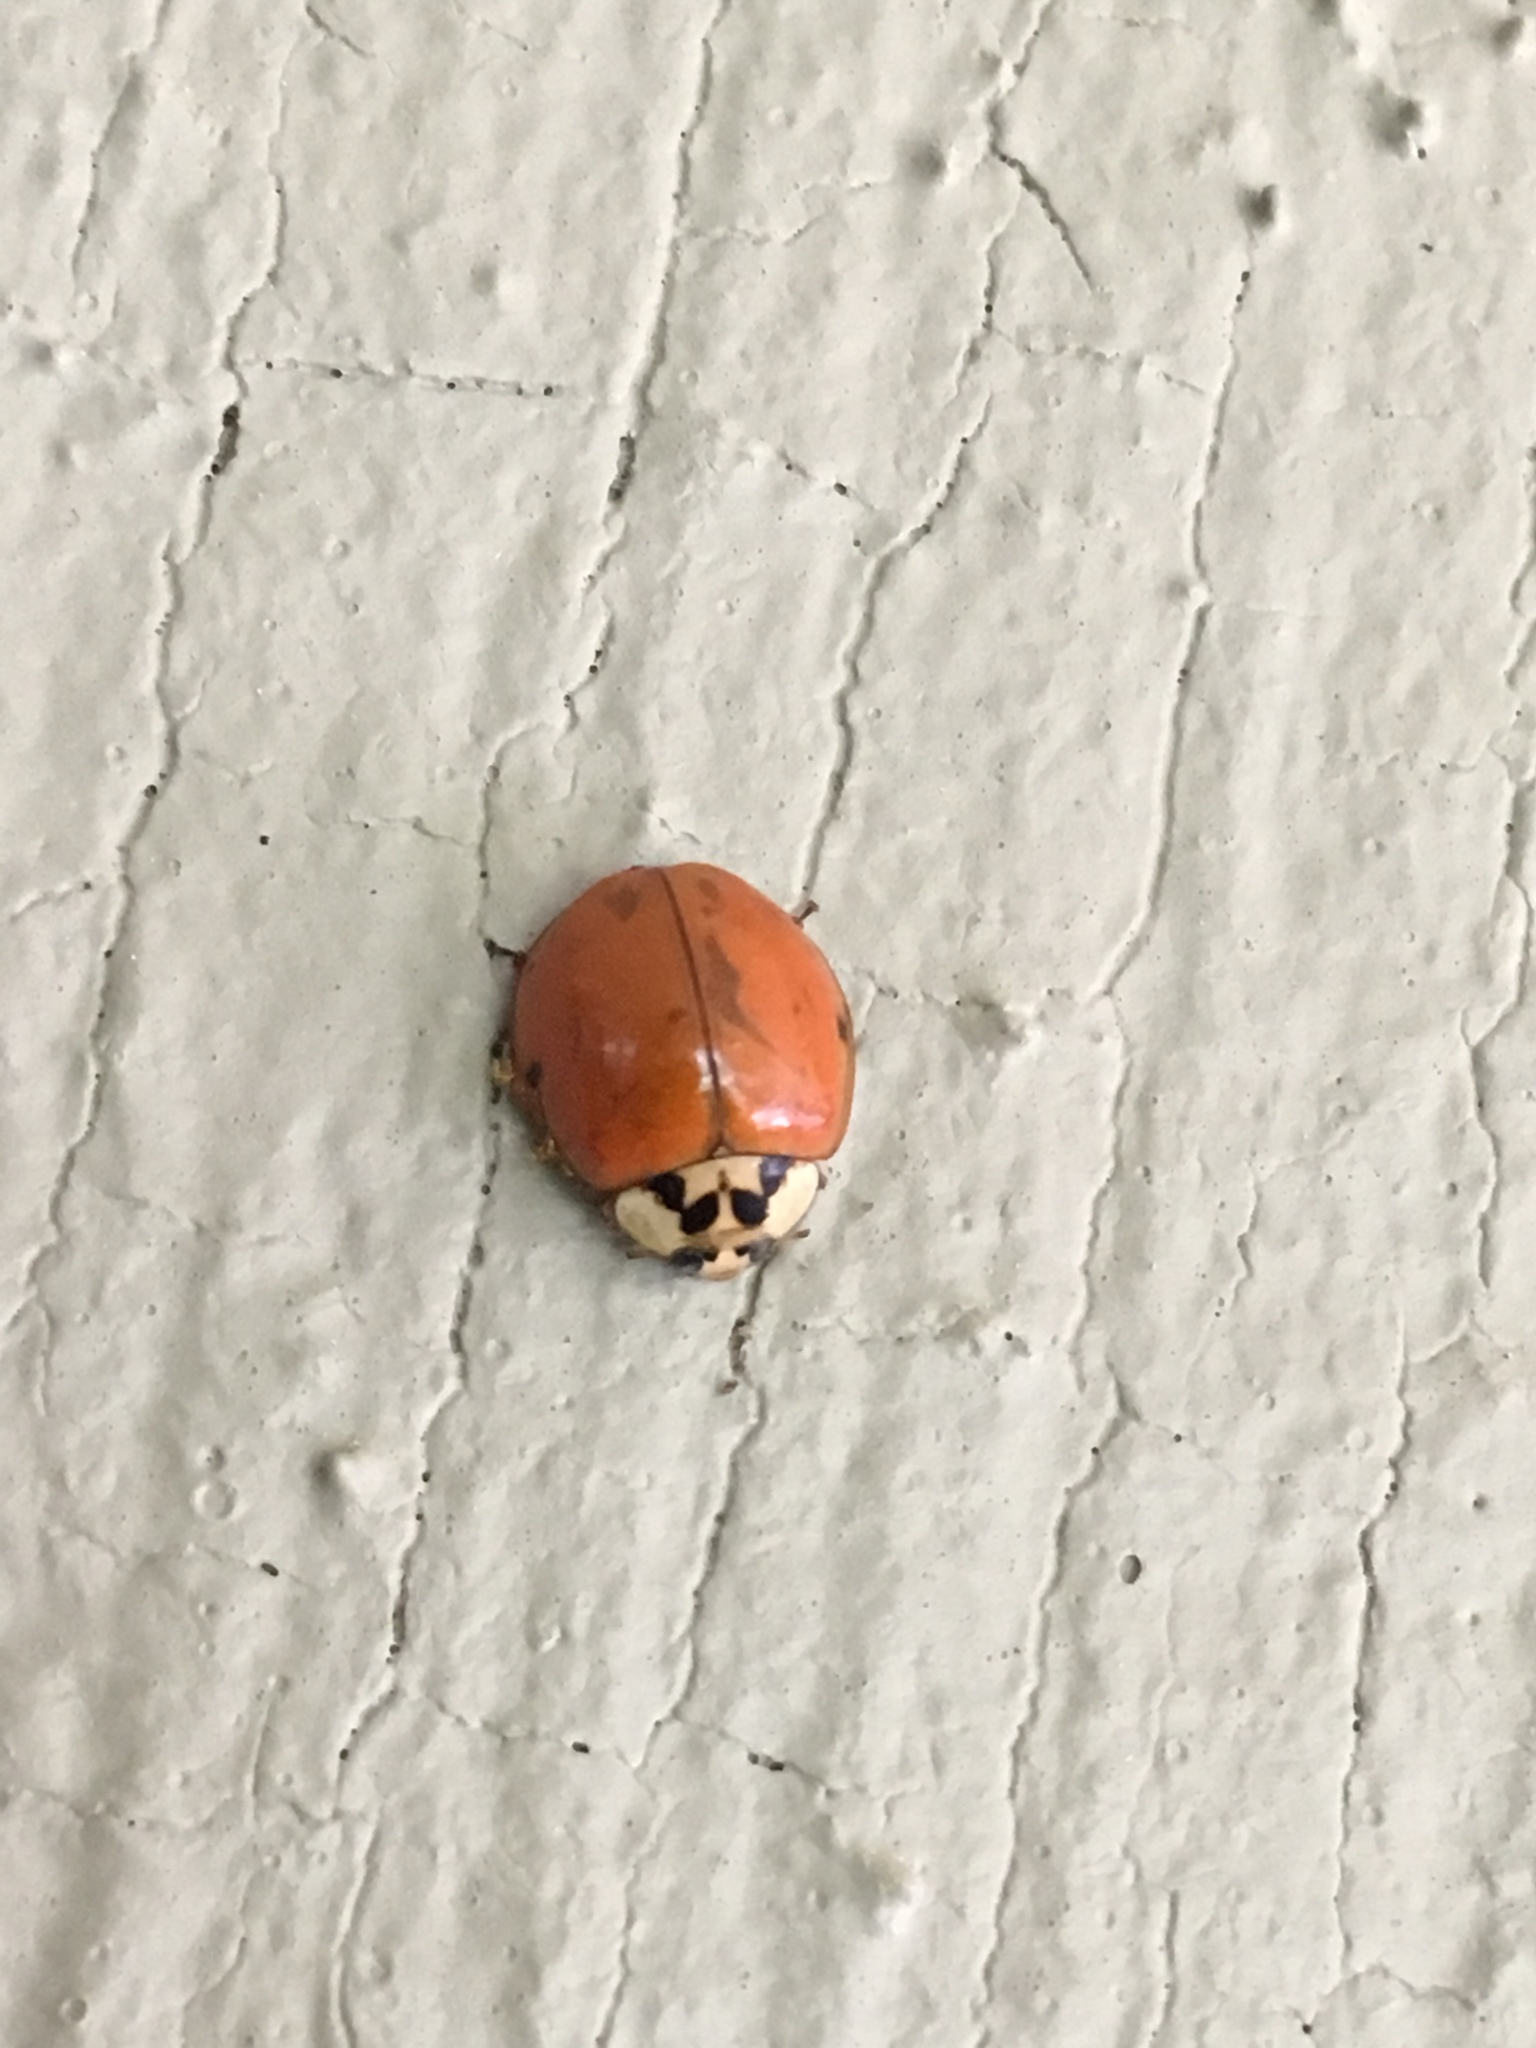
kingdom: Animalia
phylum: Arthropoda
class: Insecta
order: Coleoptera
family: Coccinellidae
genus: Harmonia
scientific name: Harmonia axyridis
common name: Harlequin ladybird
